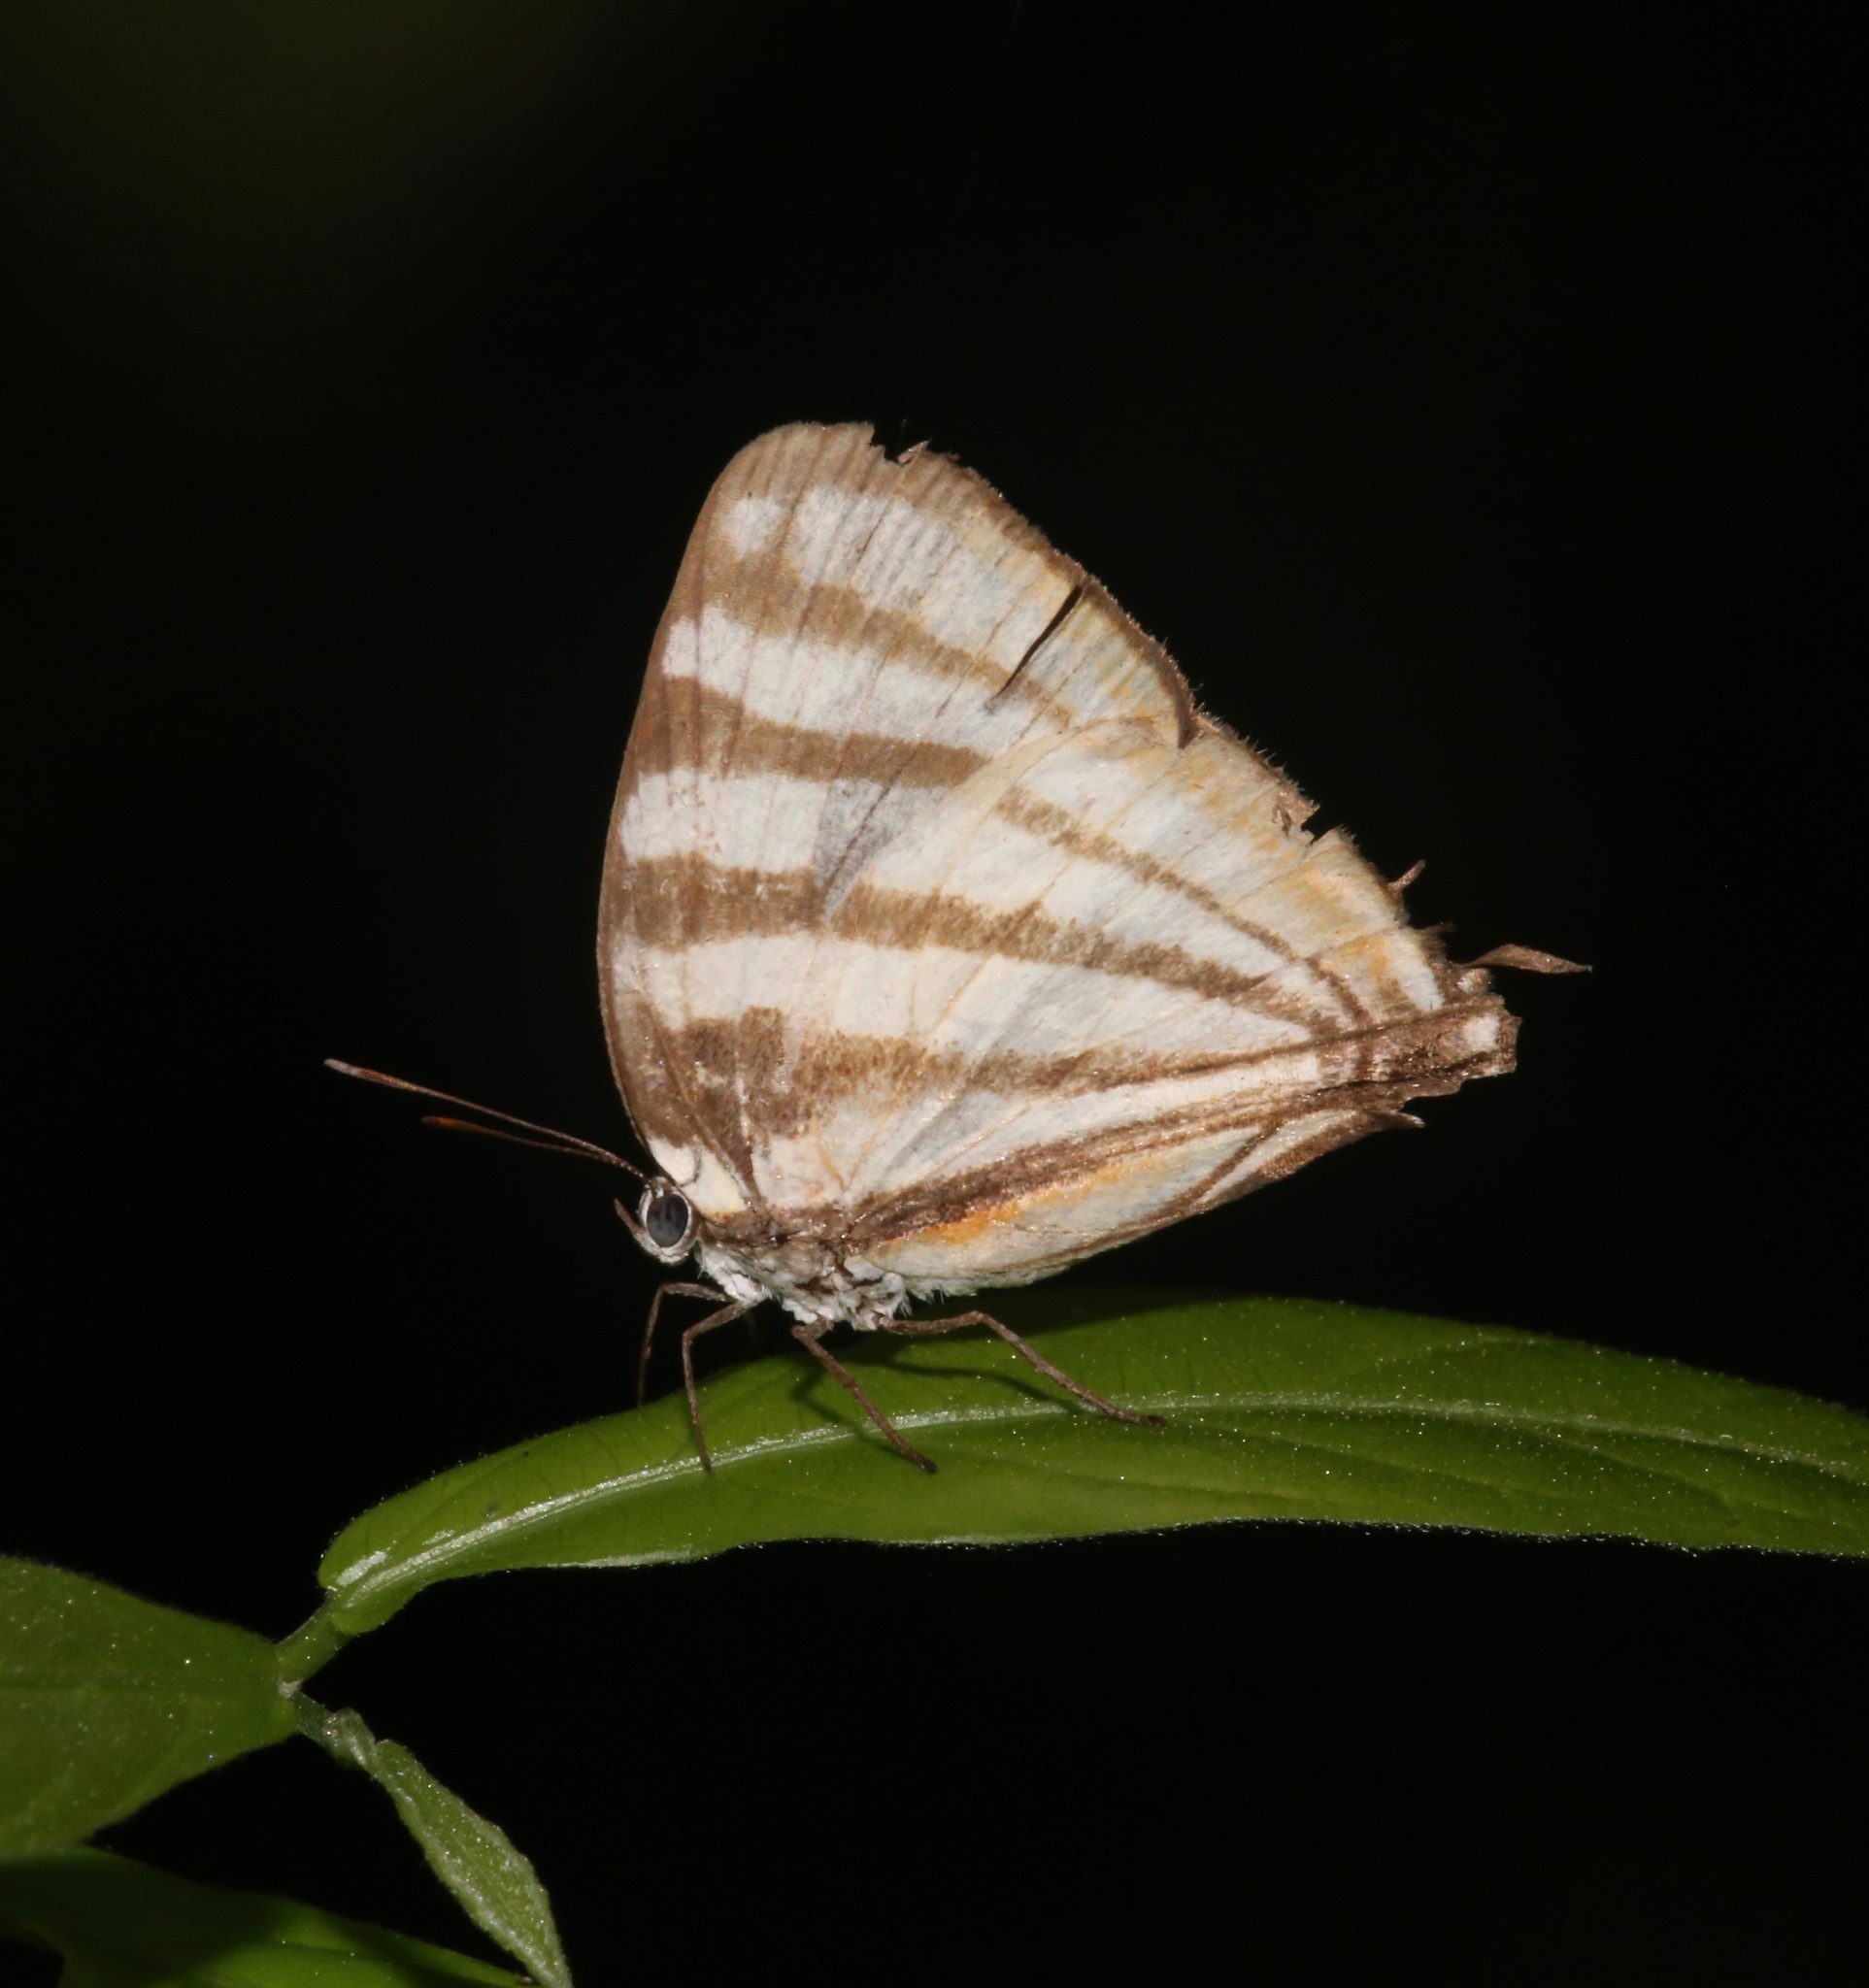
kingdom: Animalia
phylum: Arthropoda
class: Insecta
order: Lepidoptera
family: Lycaenidae
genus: Arawacus
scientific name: Arawacus lincoides
